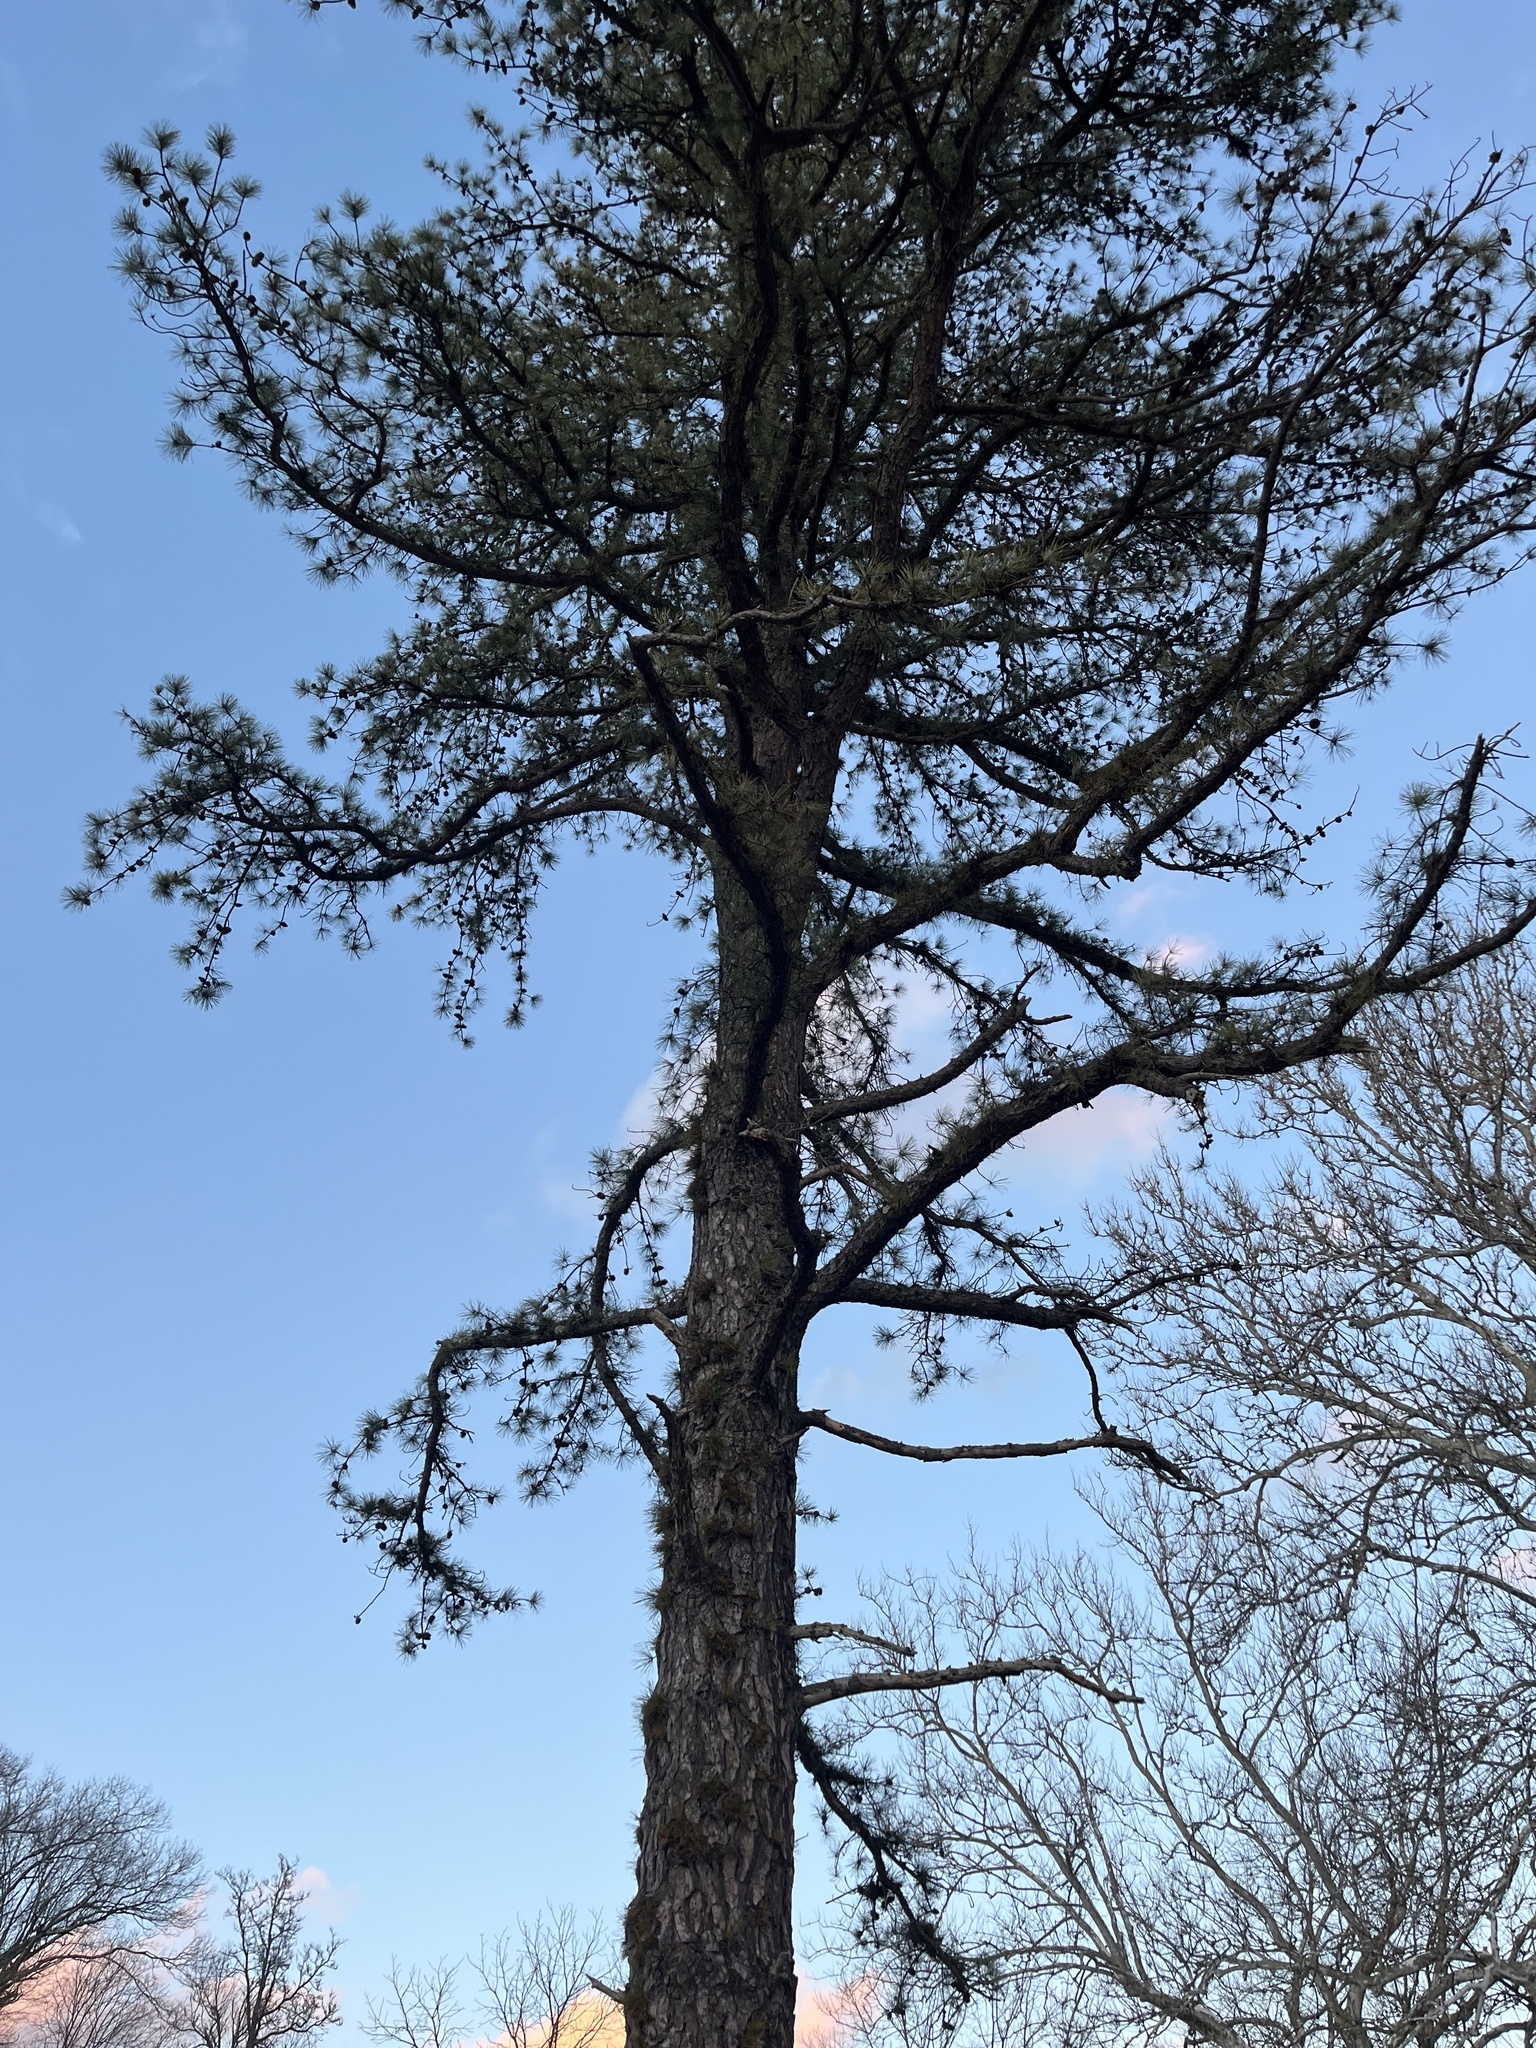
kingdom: Plantae
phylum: Tracheophyta
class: Pinopsida
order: Pinales
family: Pinaceae
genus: Pinus
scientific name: Pinus rigida
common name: Pitch pine
